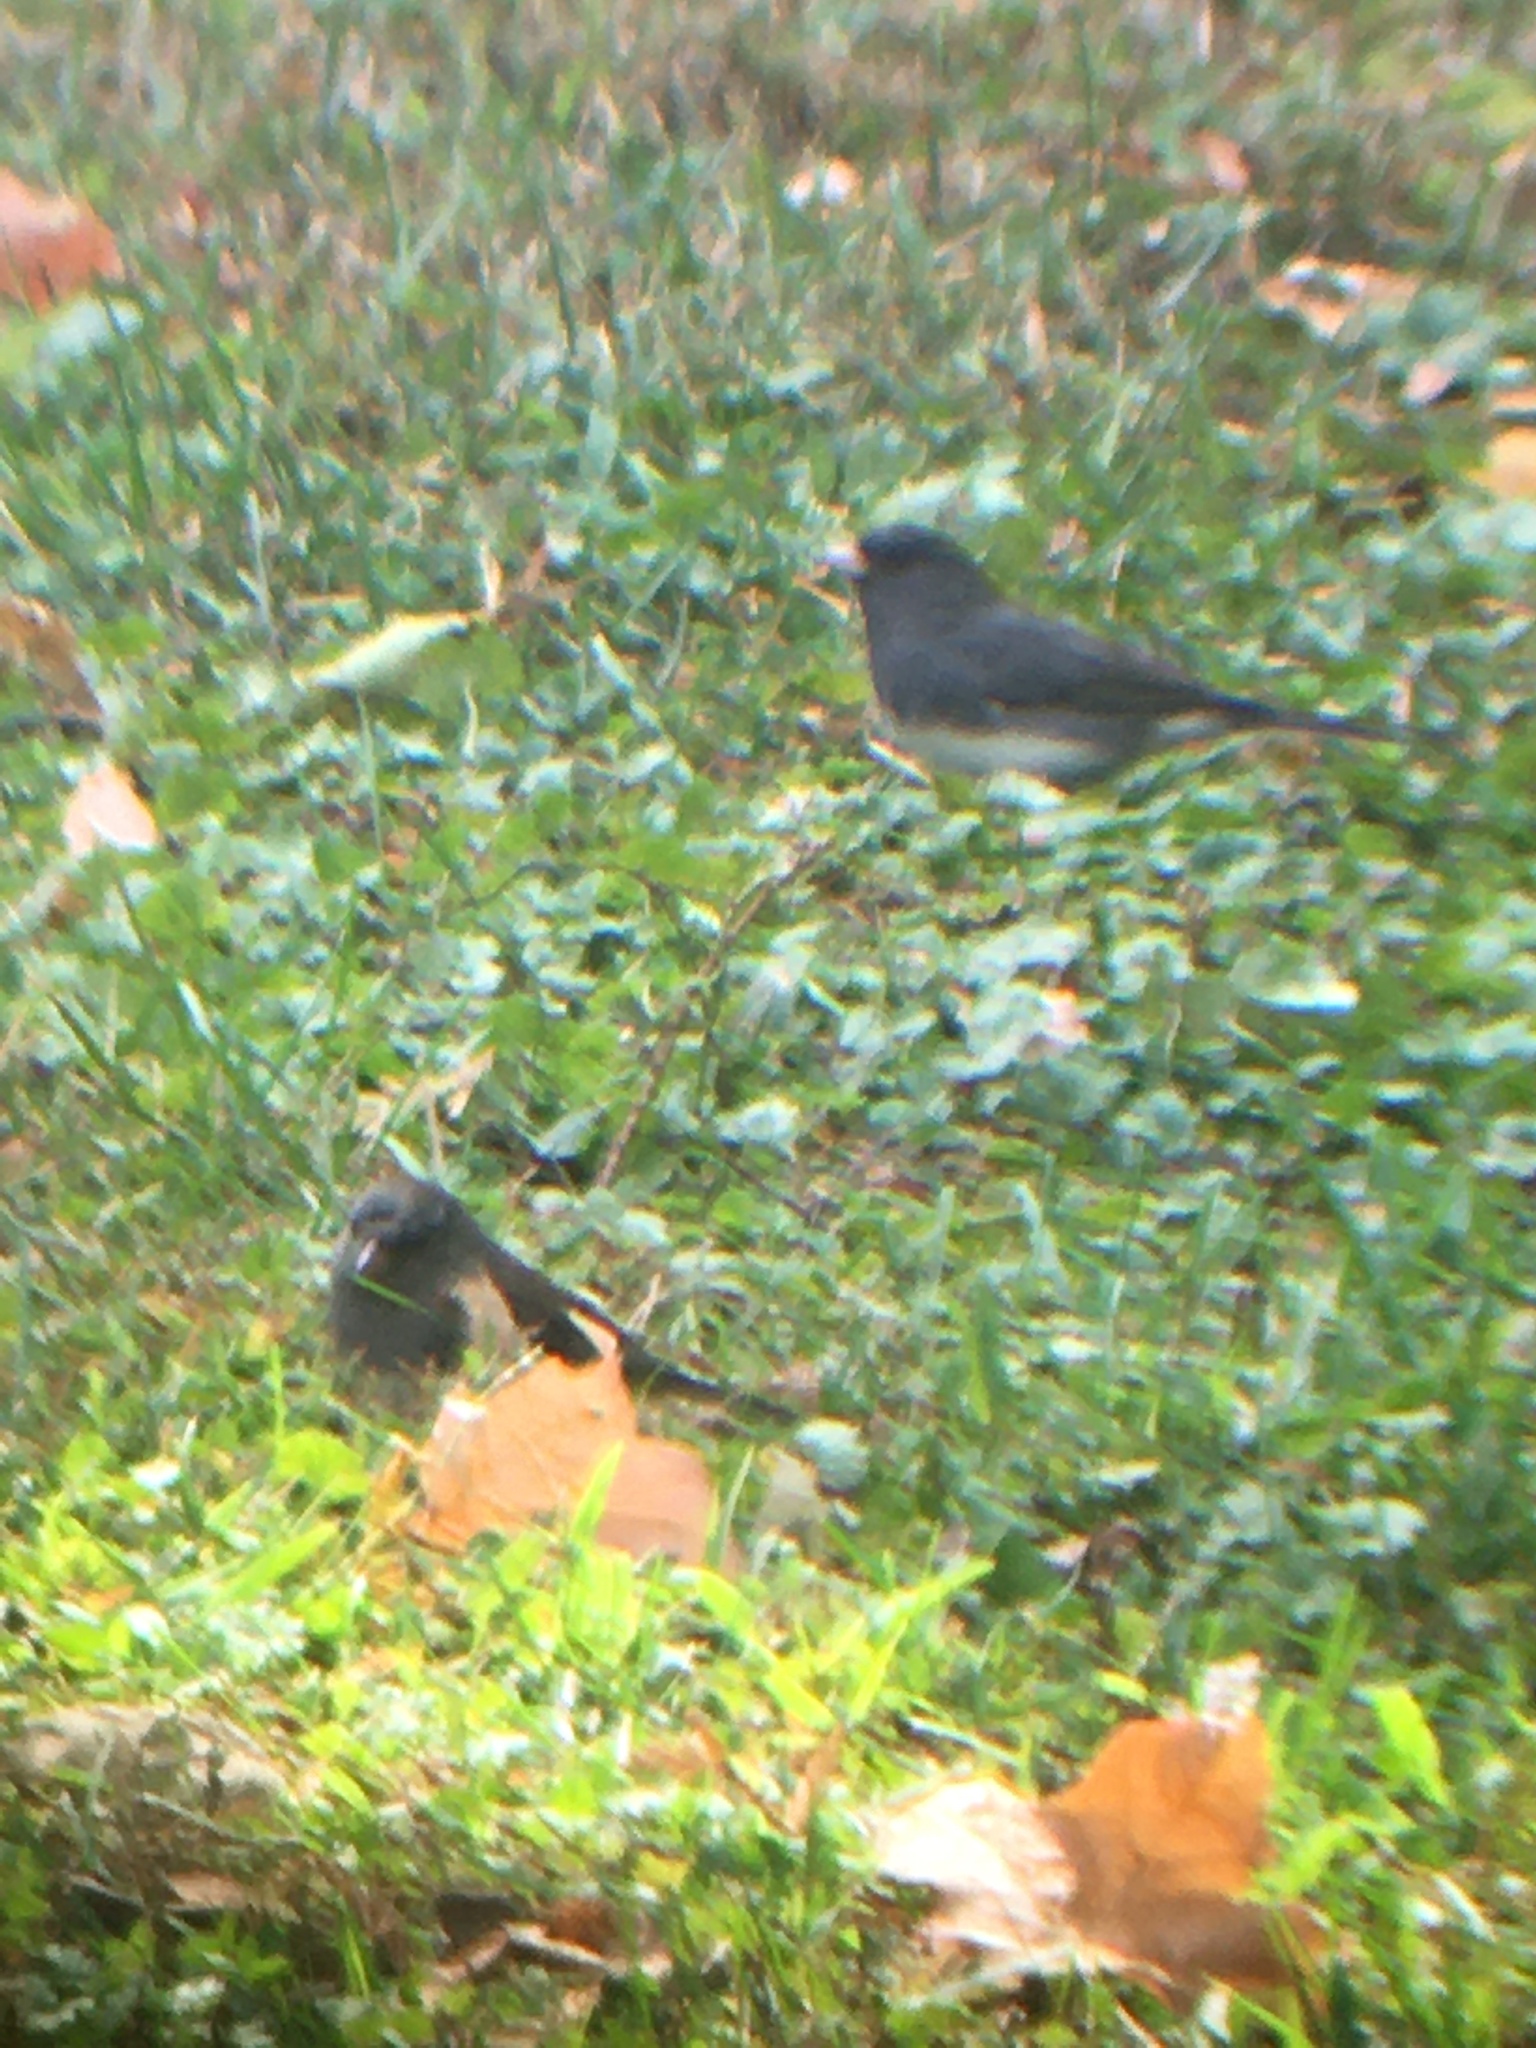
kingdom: Animalia
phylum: Chordata
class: Aves
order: Passeriformes
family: Passerellidae
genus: Junco
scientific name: Junco hyemalis
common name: Dark-eyed junco
